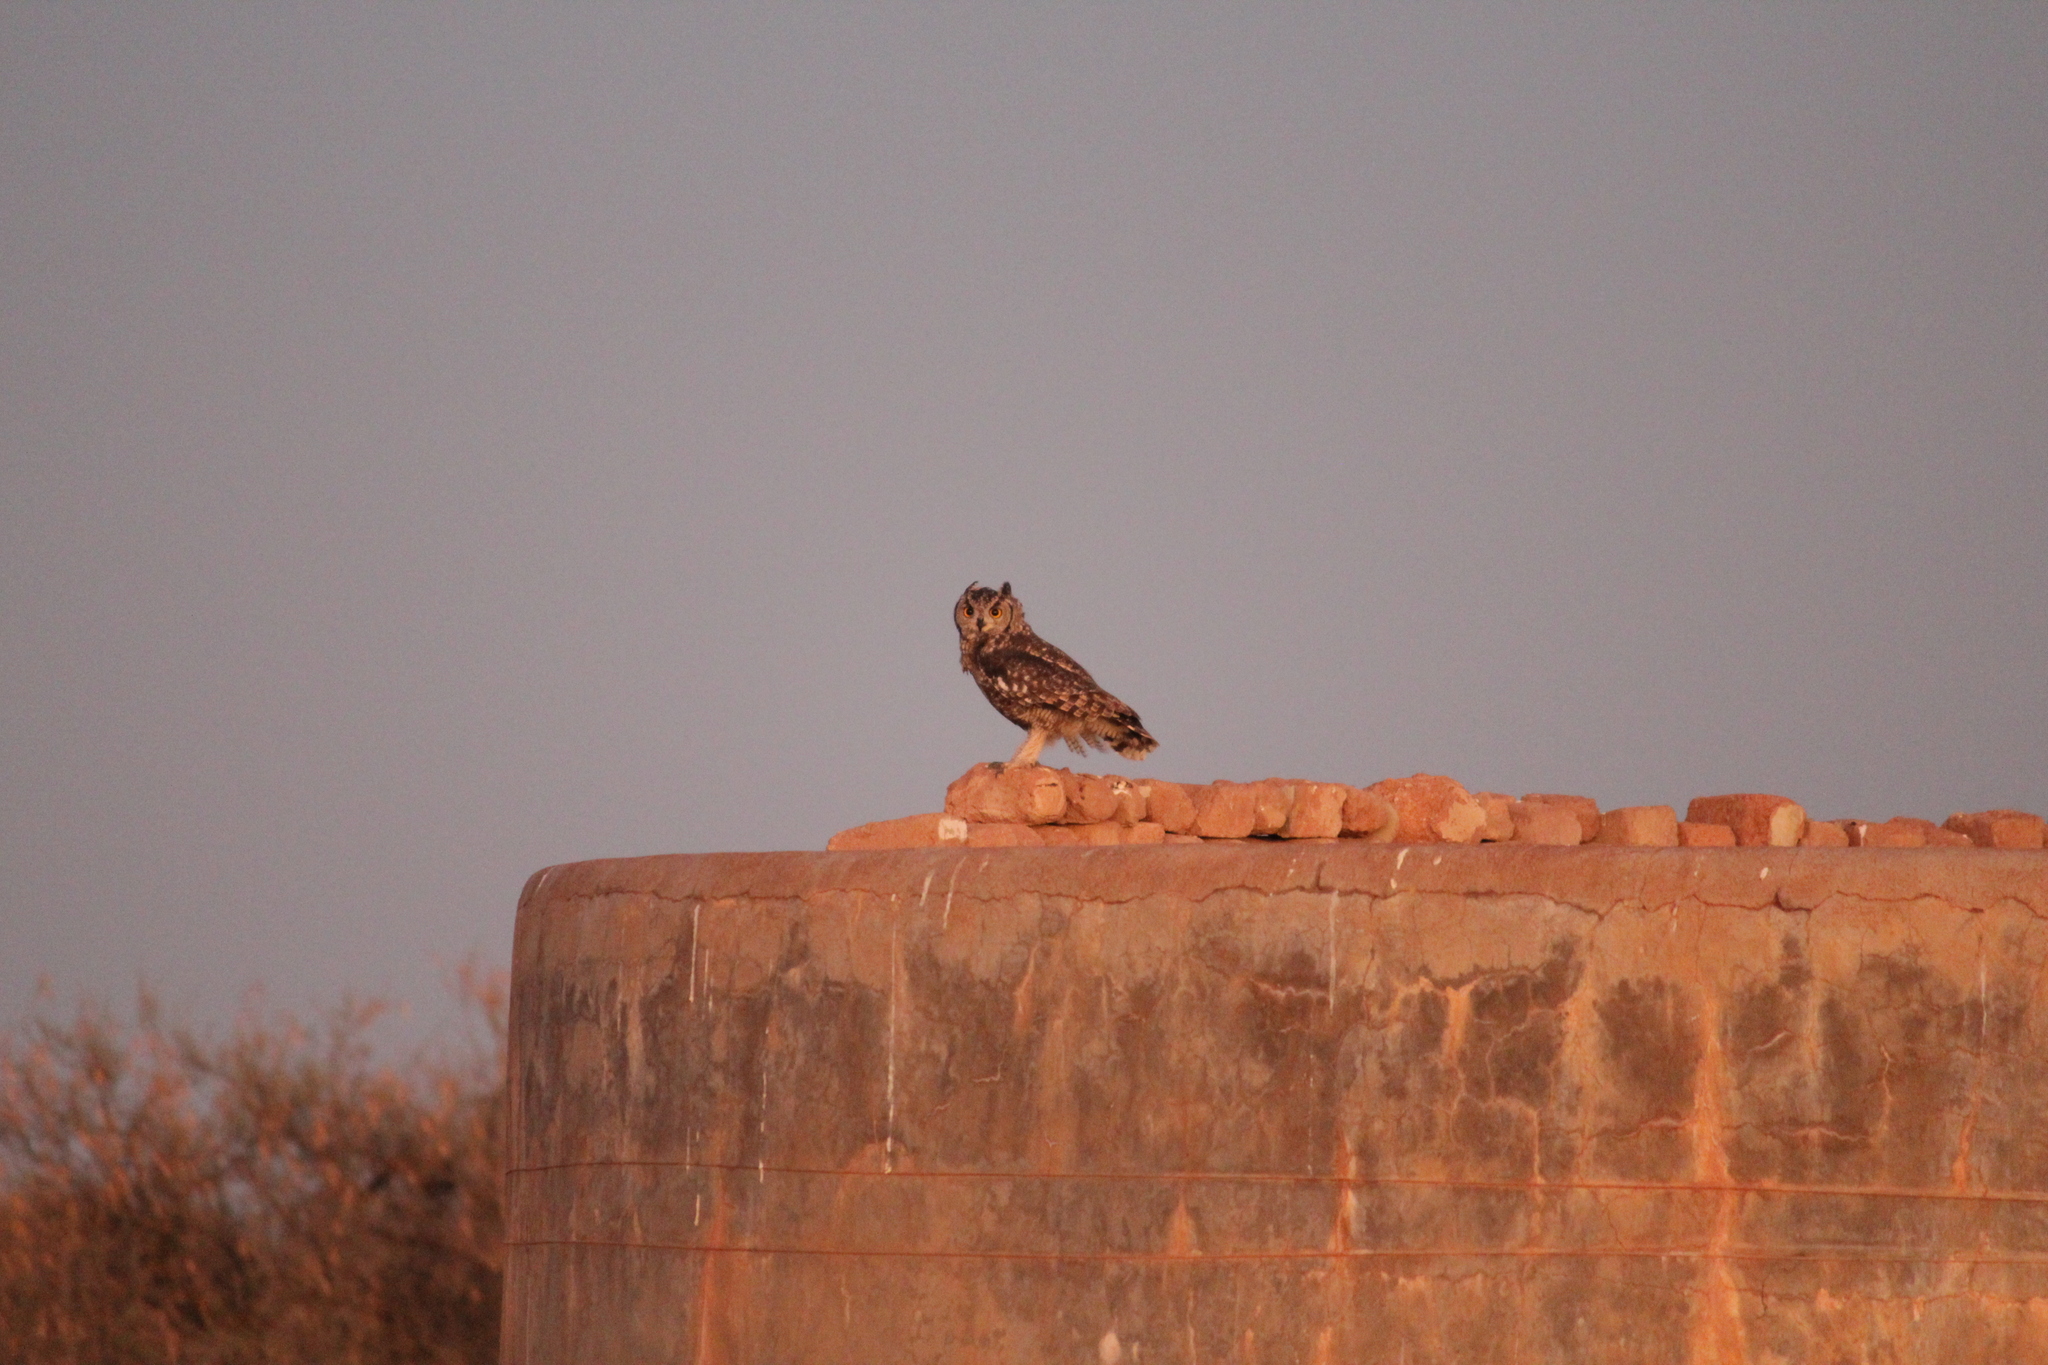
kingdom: Animalia
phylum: Chordata
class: Aves
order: Strigiformes
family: Strigidae
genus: Bubo
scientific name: Bubo africanus
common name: Spotted eagle-owl
